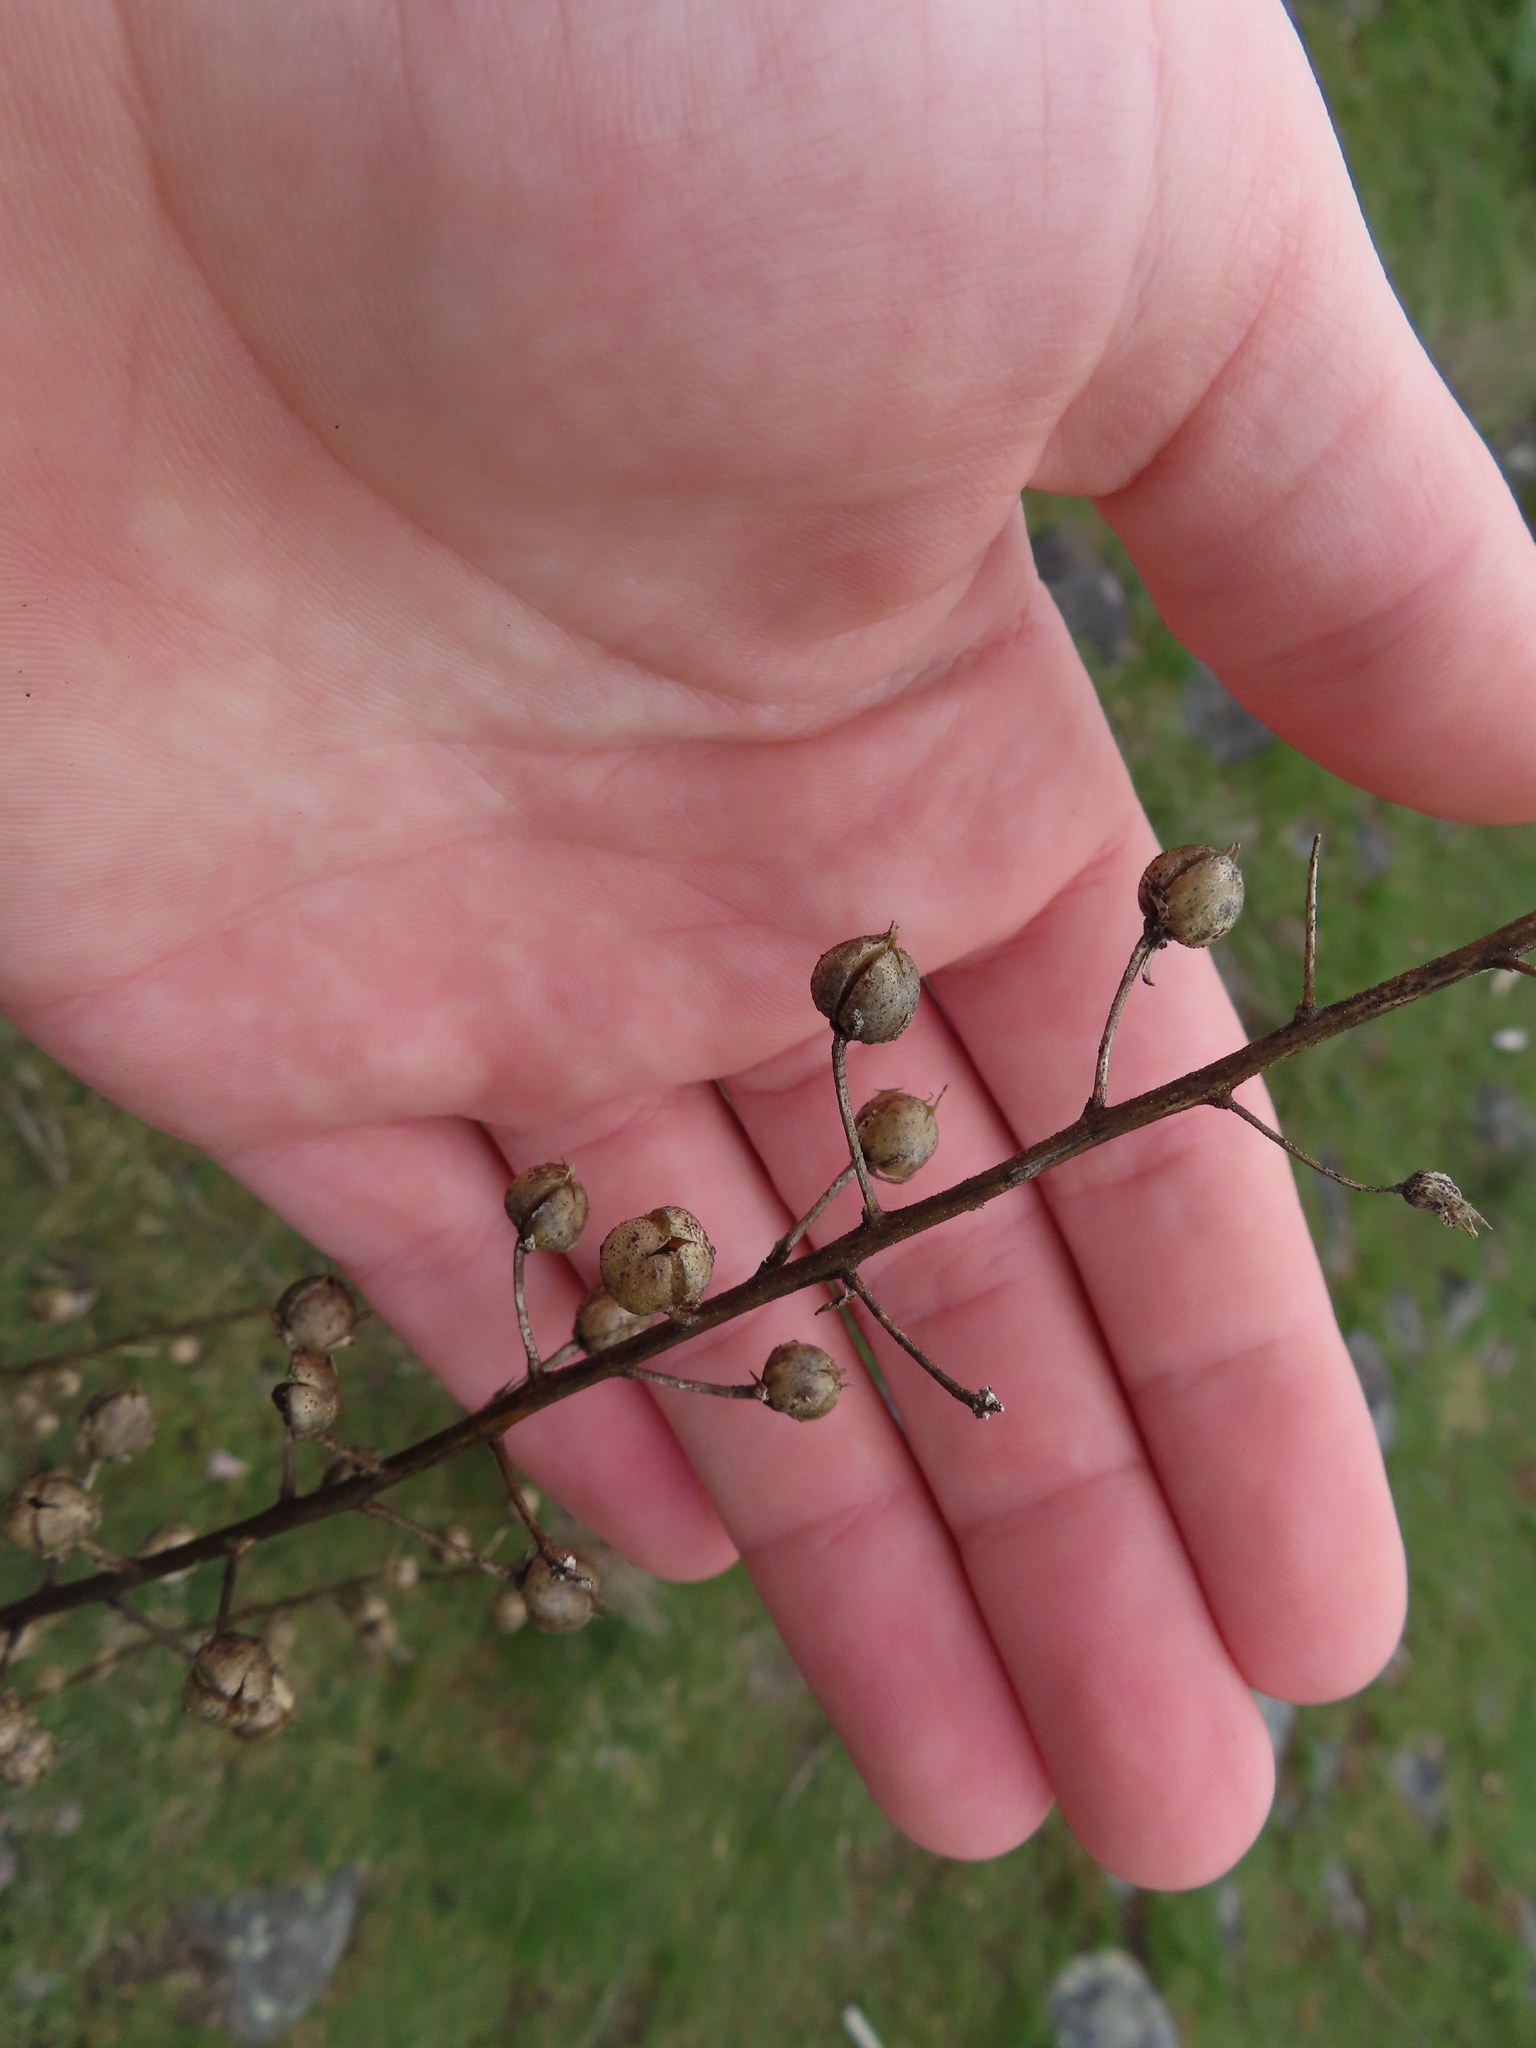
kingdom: Plantae
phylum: Tracheophyta
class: Magnoliopsida
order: Lamiales
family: Scrophulariaceae
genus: Verbascum
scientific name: Verbascum blattaria
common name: Moth mullein
